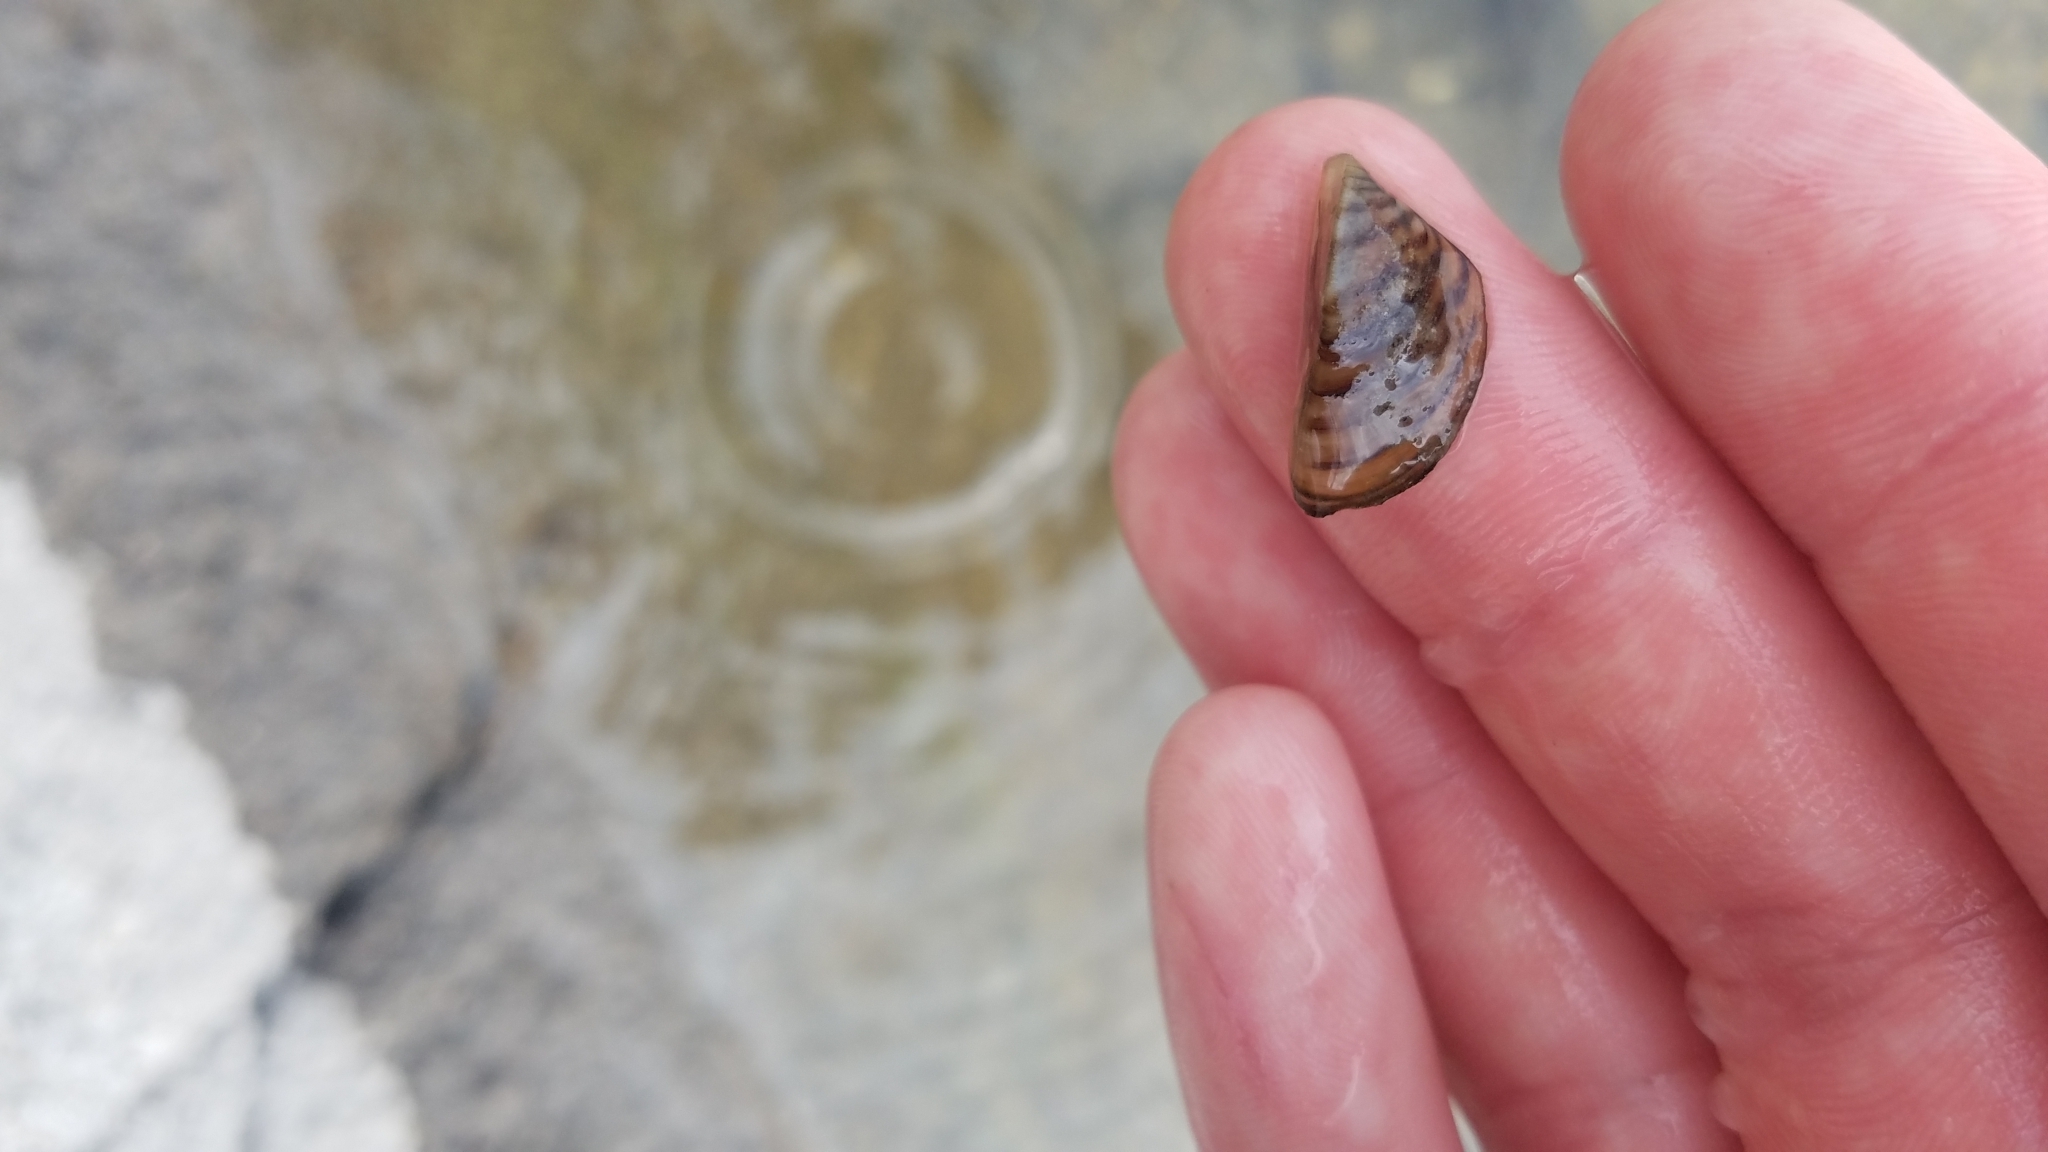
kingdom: Animalia
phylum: Mollusca
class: Bivalvia
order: Myida
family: Dreissenidae
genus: Dreissena
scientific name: Dreissena polymorpha
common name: Zebra mussel
